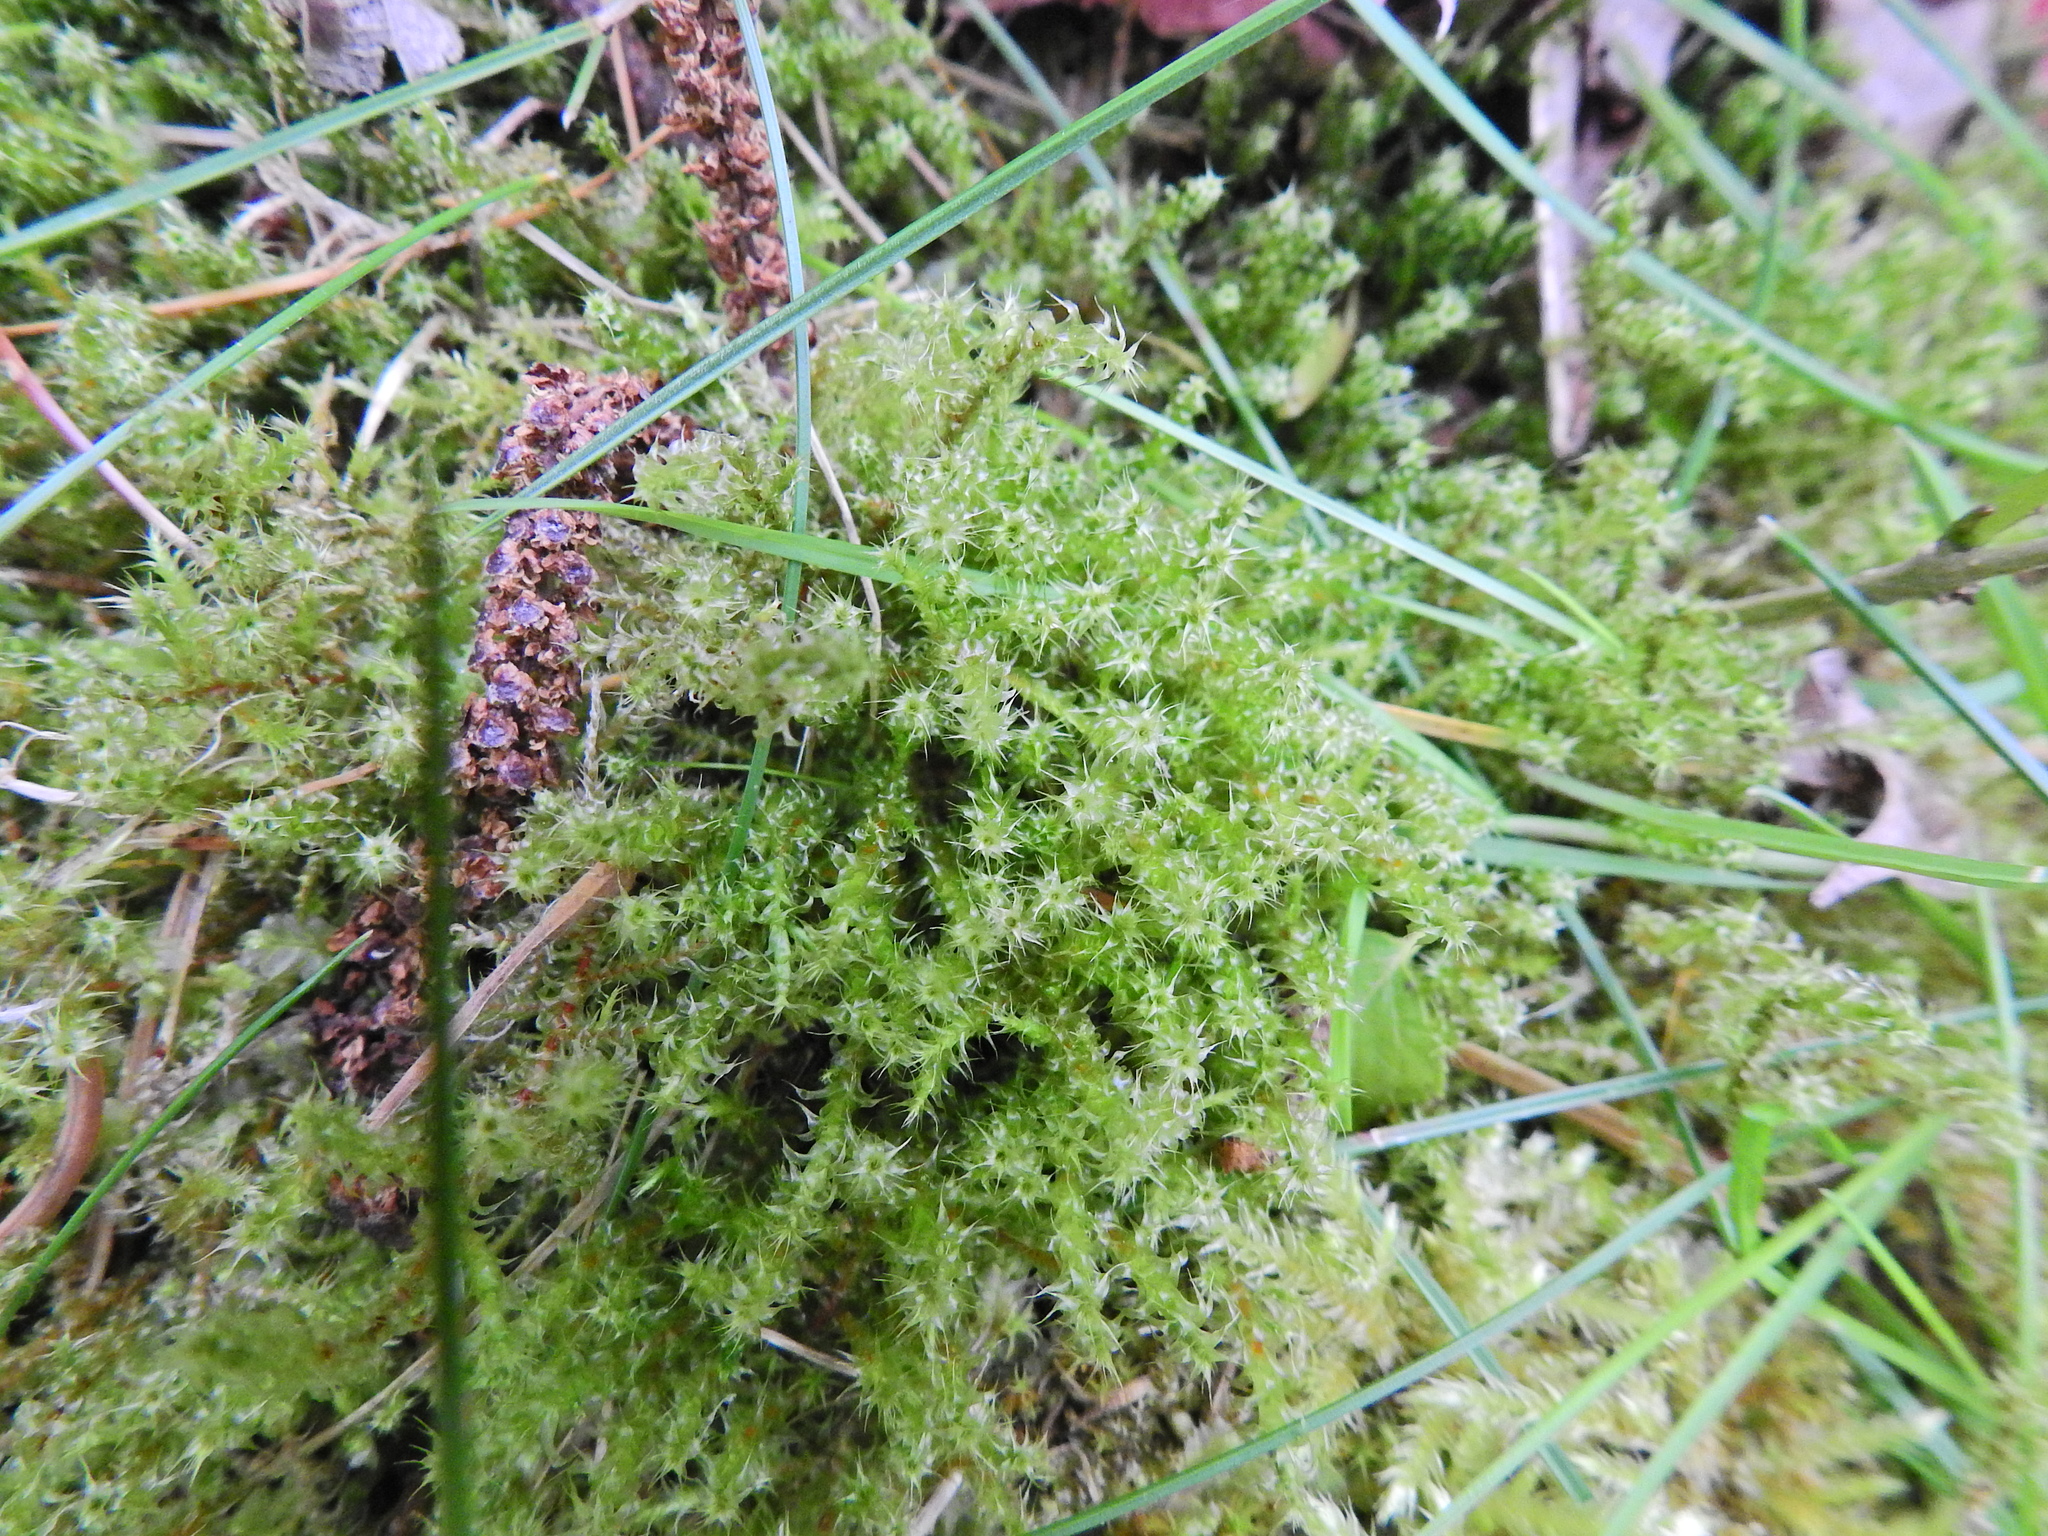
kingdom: Plantae
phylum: Bryophyta
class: Bryopsida
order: Hypnales
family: Hylocomiaceae
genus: Rhytidiadelphus
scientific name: Rhytidiadelphus squarrosus
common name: Springy turf-moss
